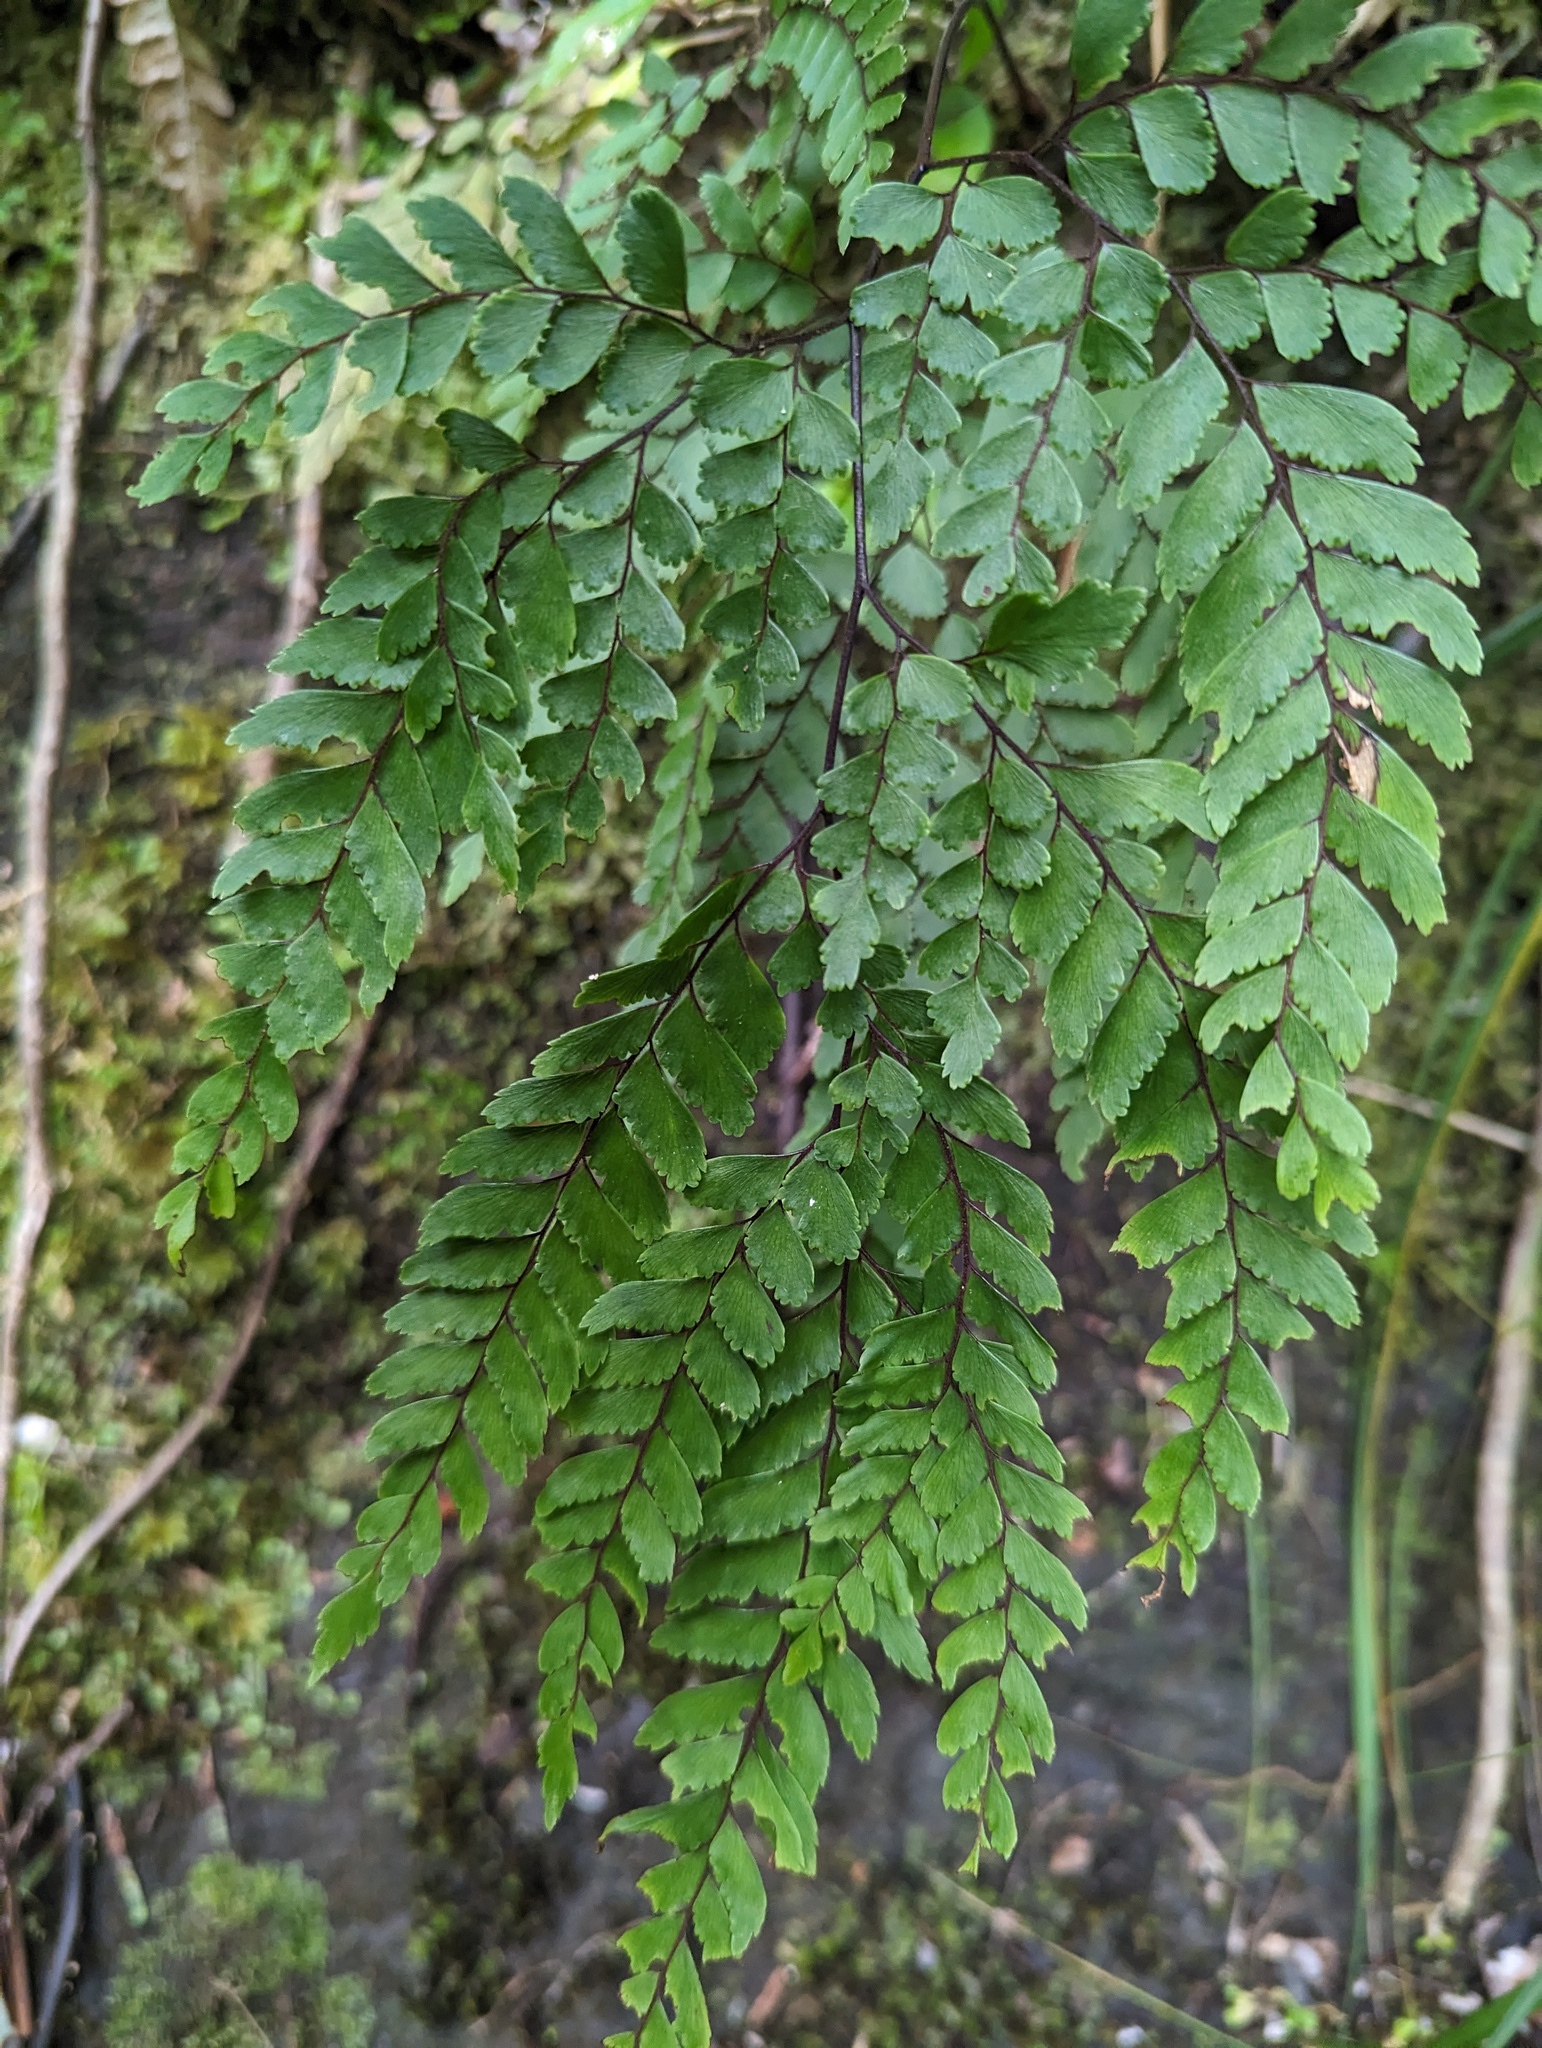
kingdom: Plantae
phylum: Tracheophyta
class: Polypodiopsida
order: Polypodiales
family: Pteridaceae
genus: Adiantum
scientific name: Adiantum hispidulum
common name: Rough maidenhair
